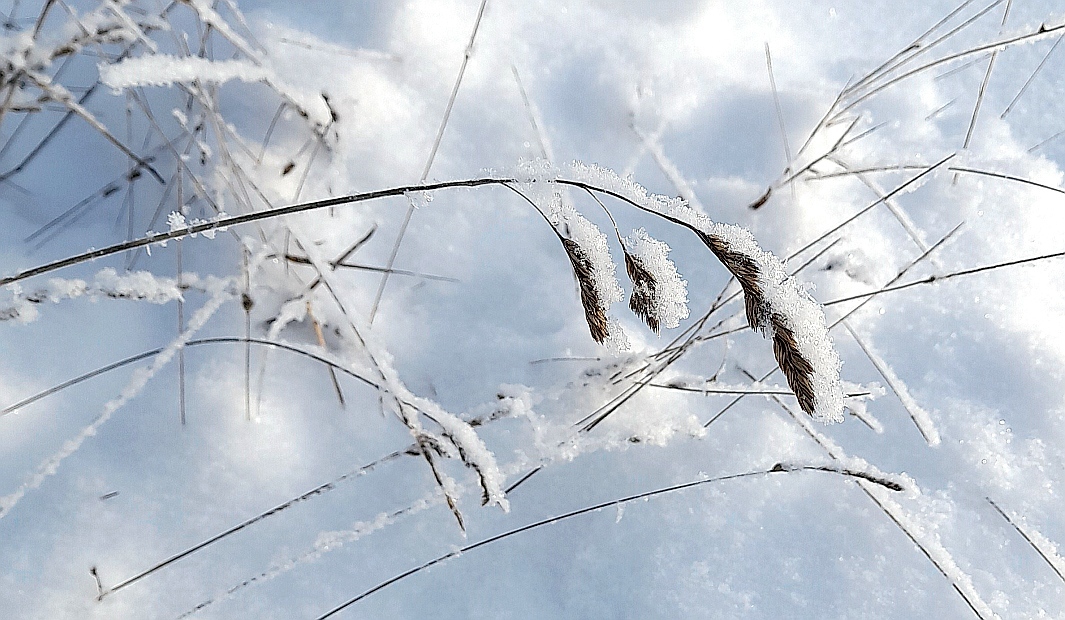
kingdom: Plantae
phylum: Tracheophyta
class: Liliopsida
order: Poales
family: Poaceae
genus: Dactylis
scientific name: Dactylis glomerata
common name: Orchardgrass
